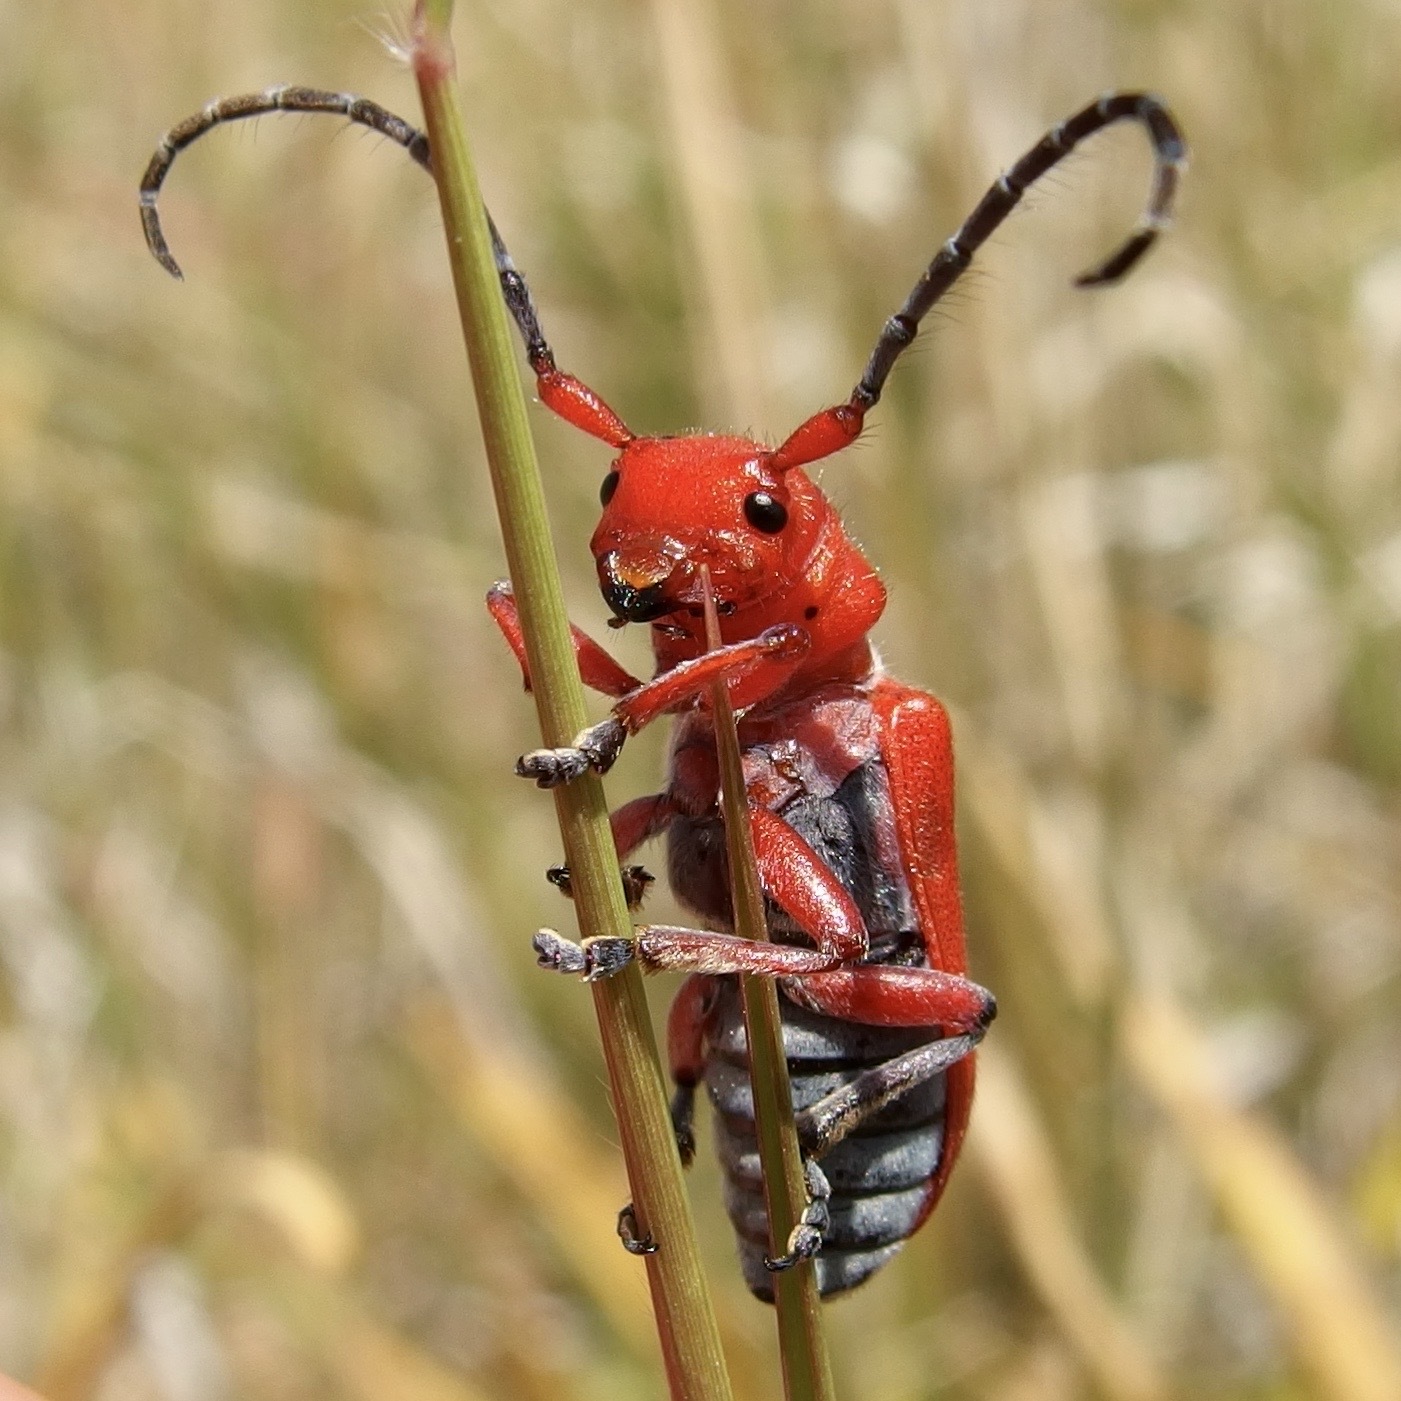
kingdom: Animalia
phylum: Arthropoda
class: Insecta
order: Coleoptera
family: Cerambycidae
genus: Tetraopes
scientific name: Tetraopes femoratus
